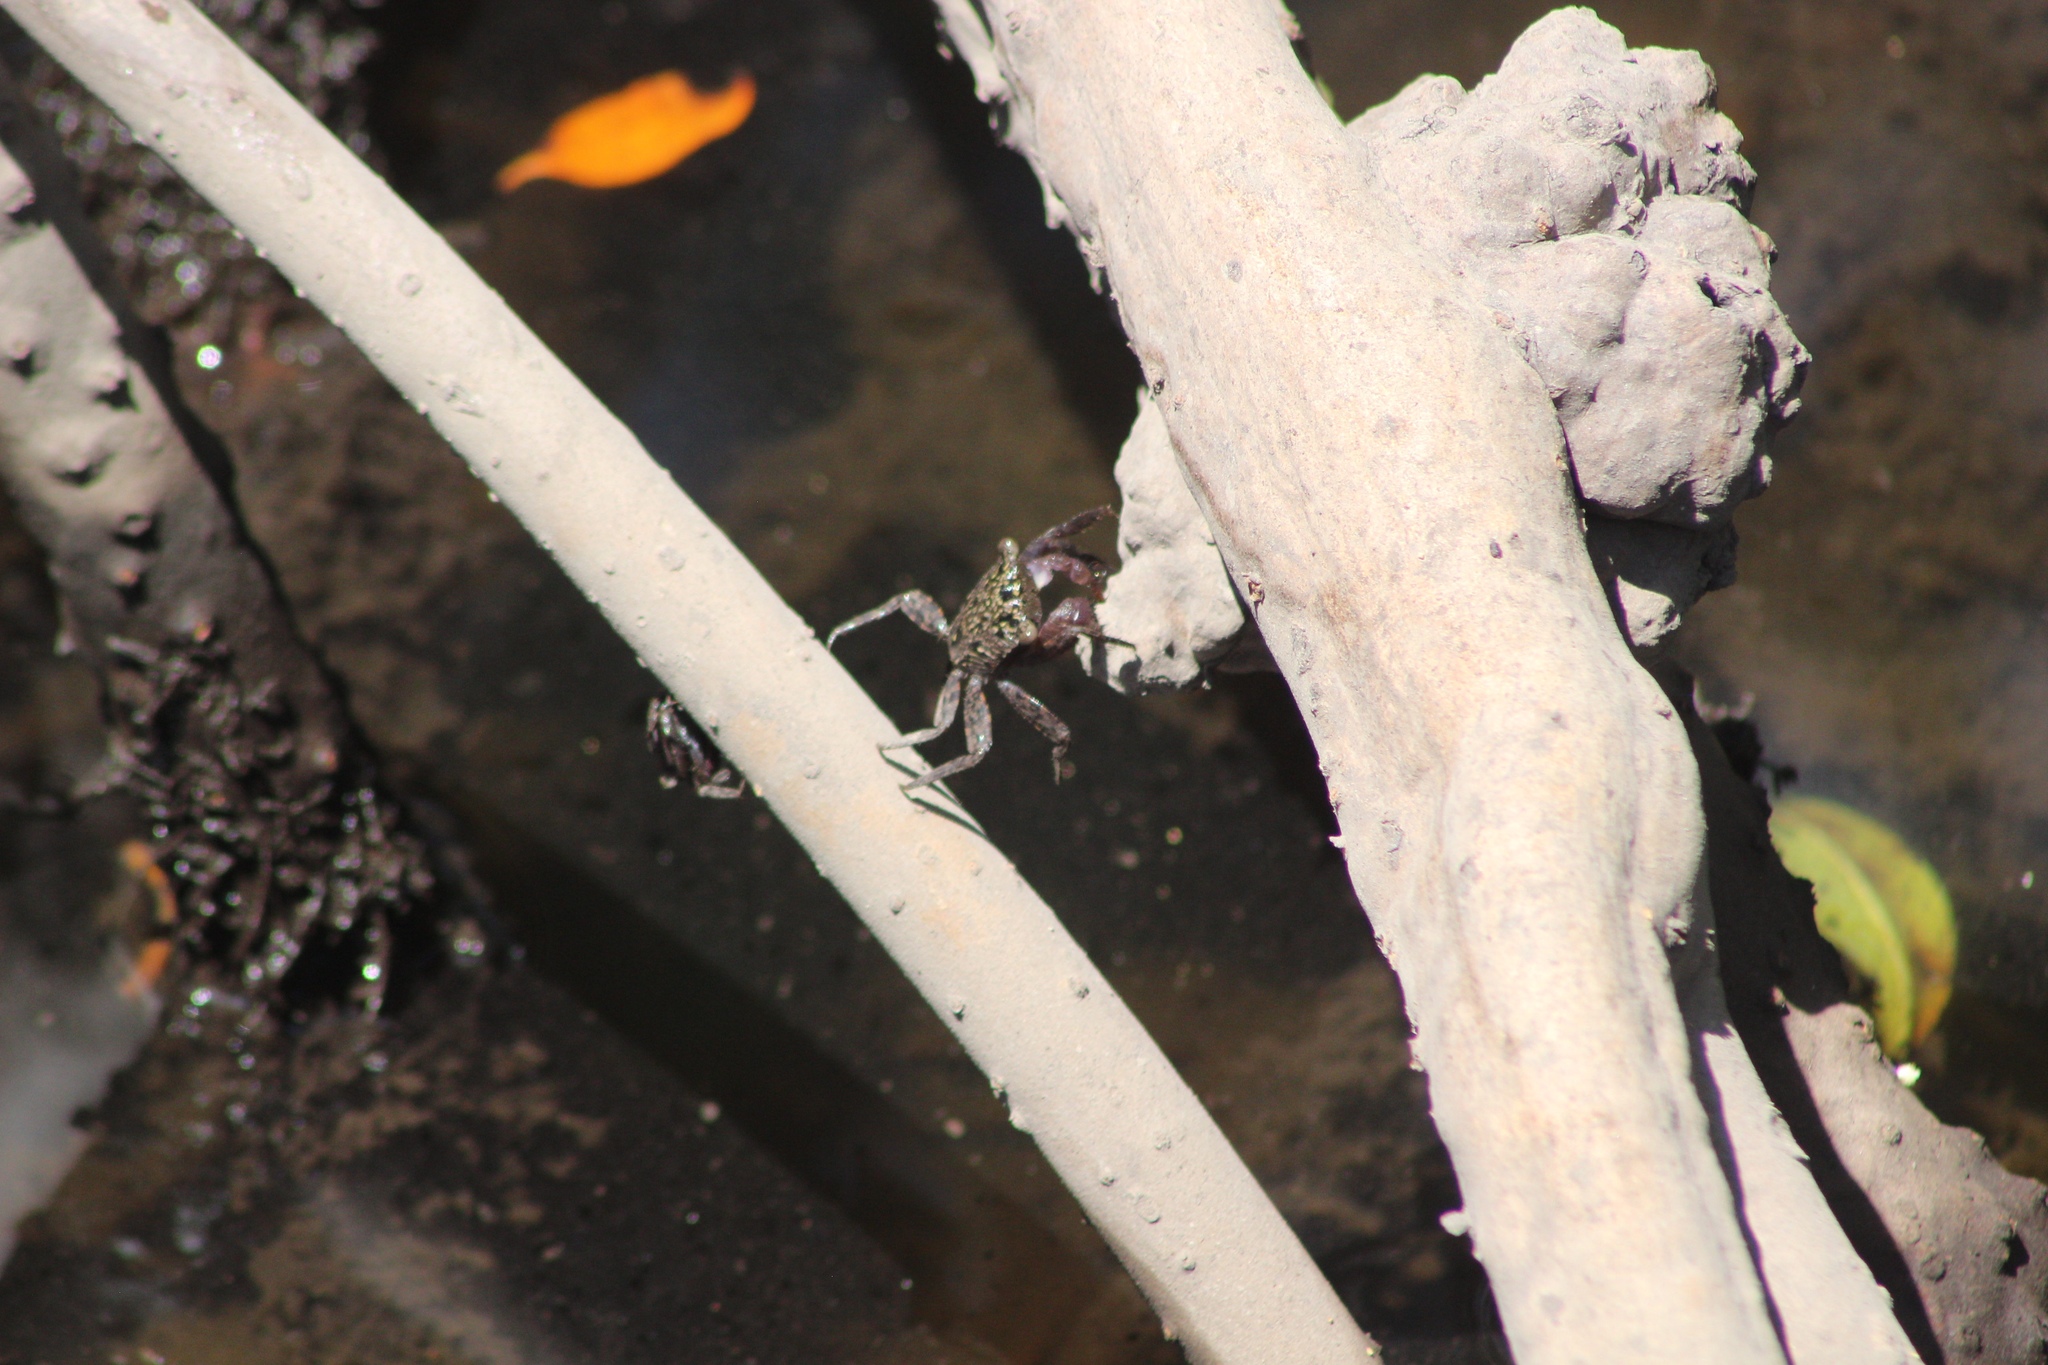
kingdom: Animalia
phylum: Arthropoda
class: Malacostraca
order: Decapoda
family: Sesarmidae
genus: Aratus
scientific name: Aratus pisonii
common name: Mangrove crab
